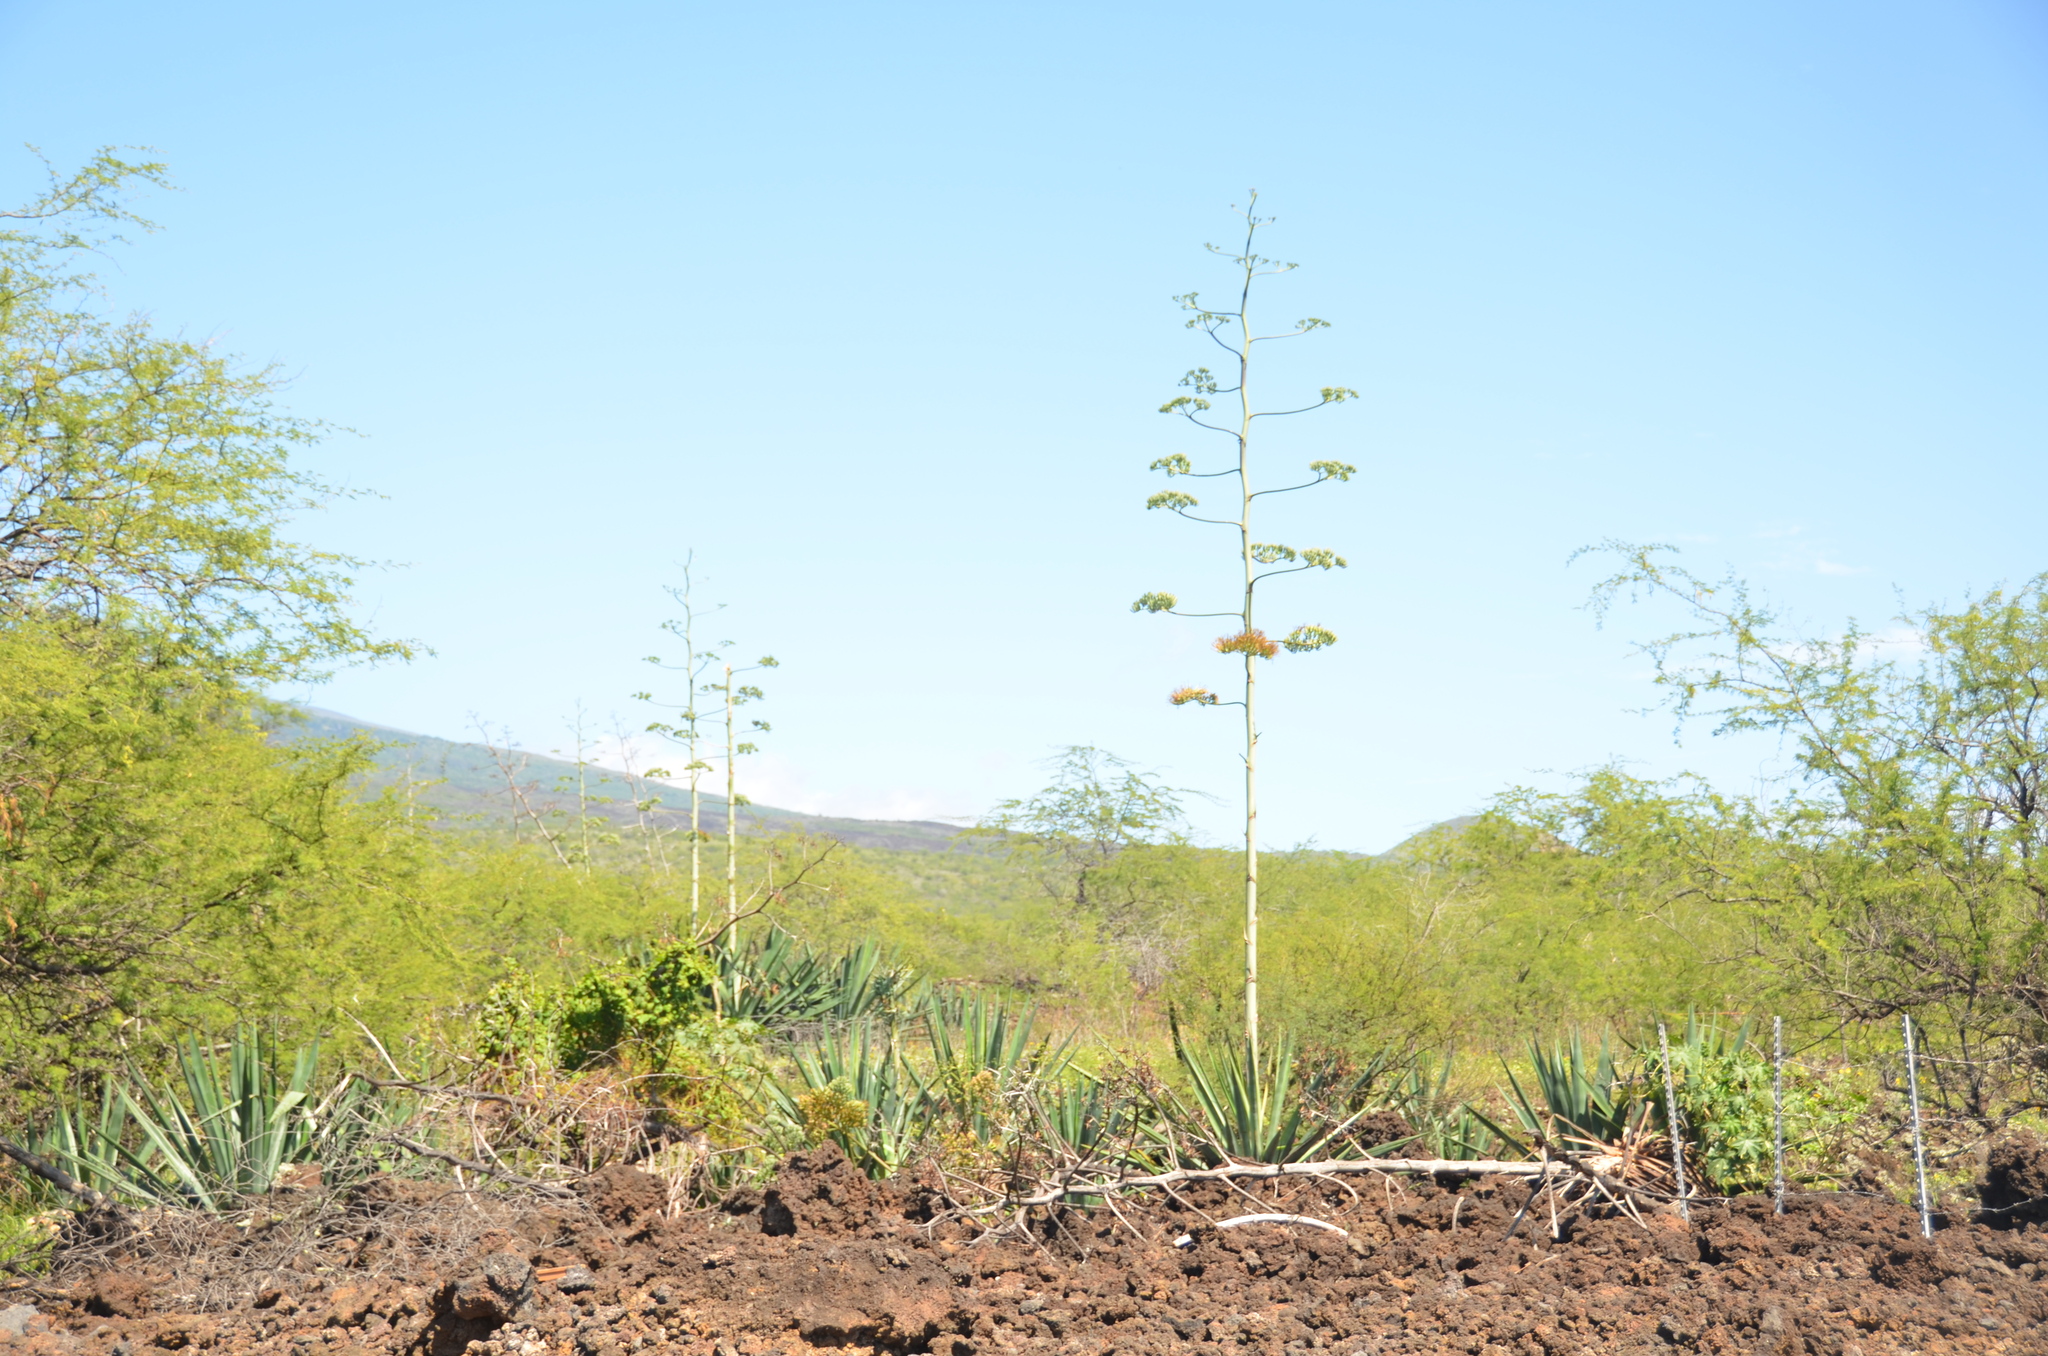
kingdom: Plantae
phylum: Tracheophyta
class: Liliopsida
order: Asparagales
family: Asparagaceae
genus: Agave
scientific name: Agave sisalana
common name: Sisal hemp
